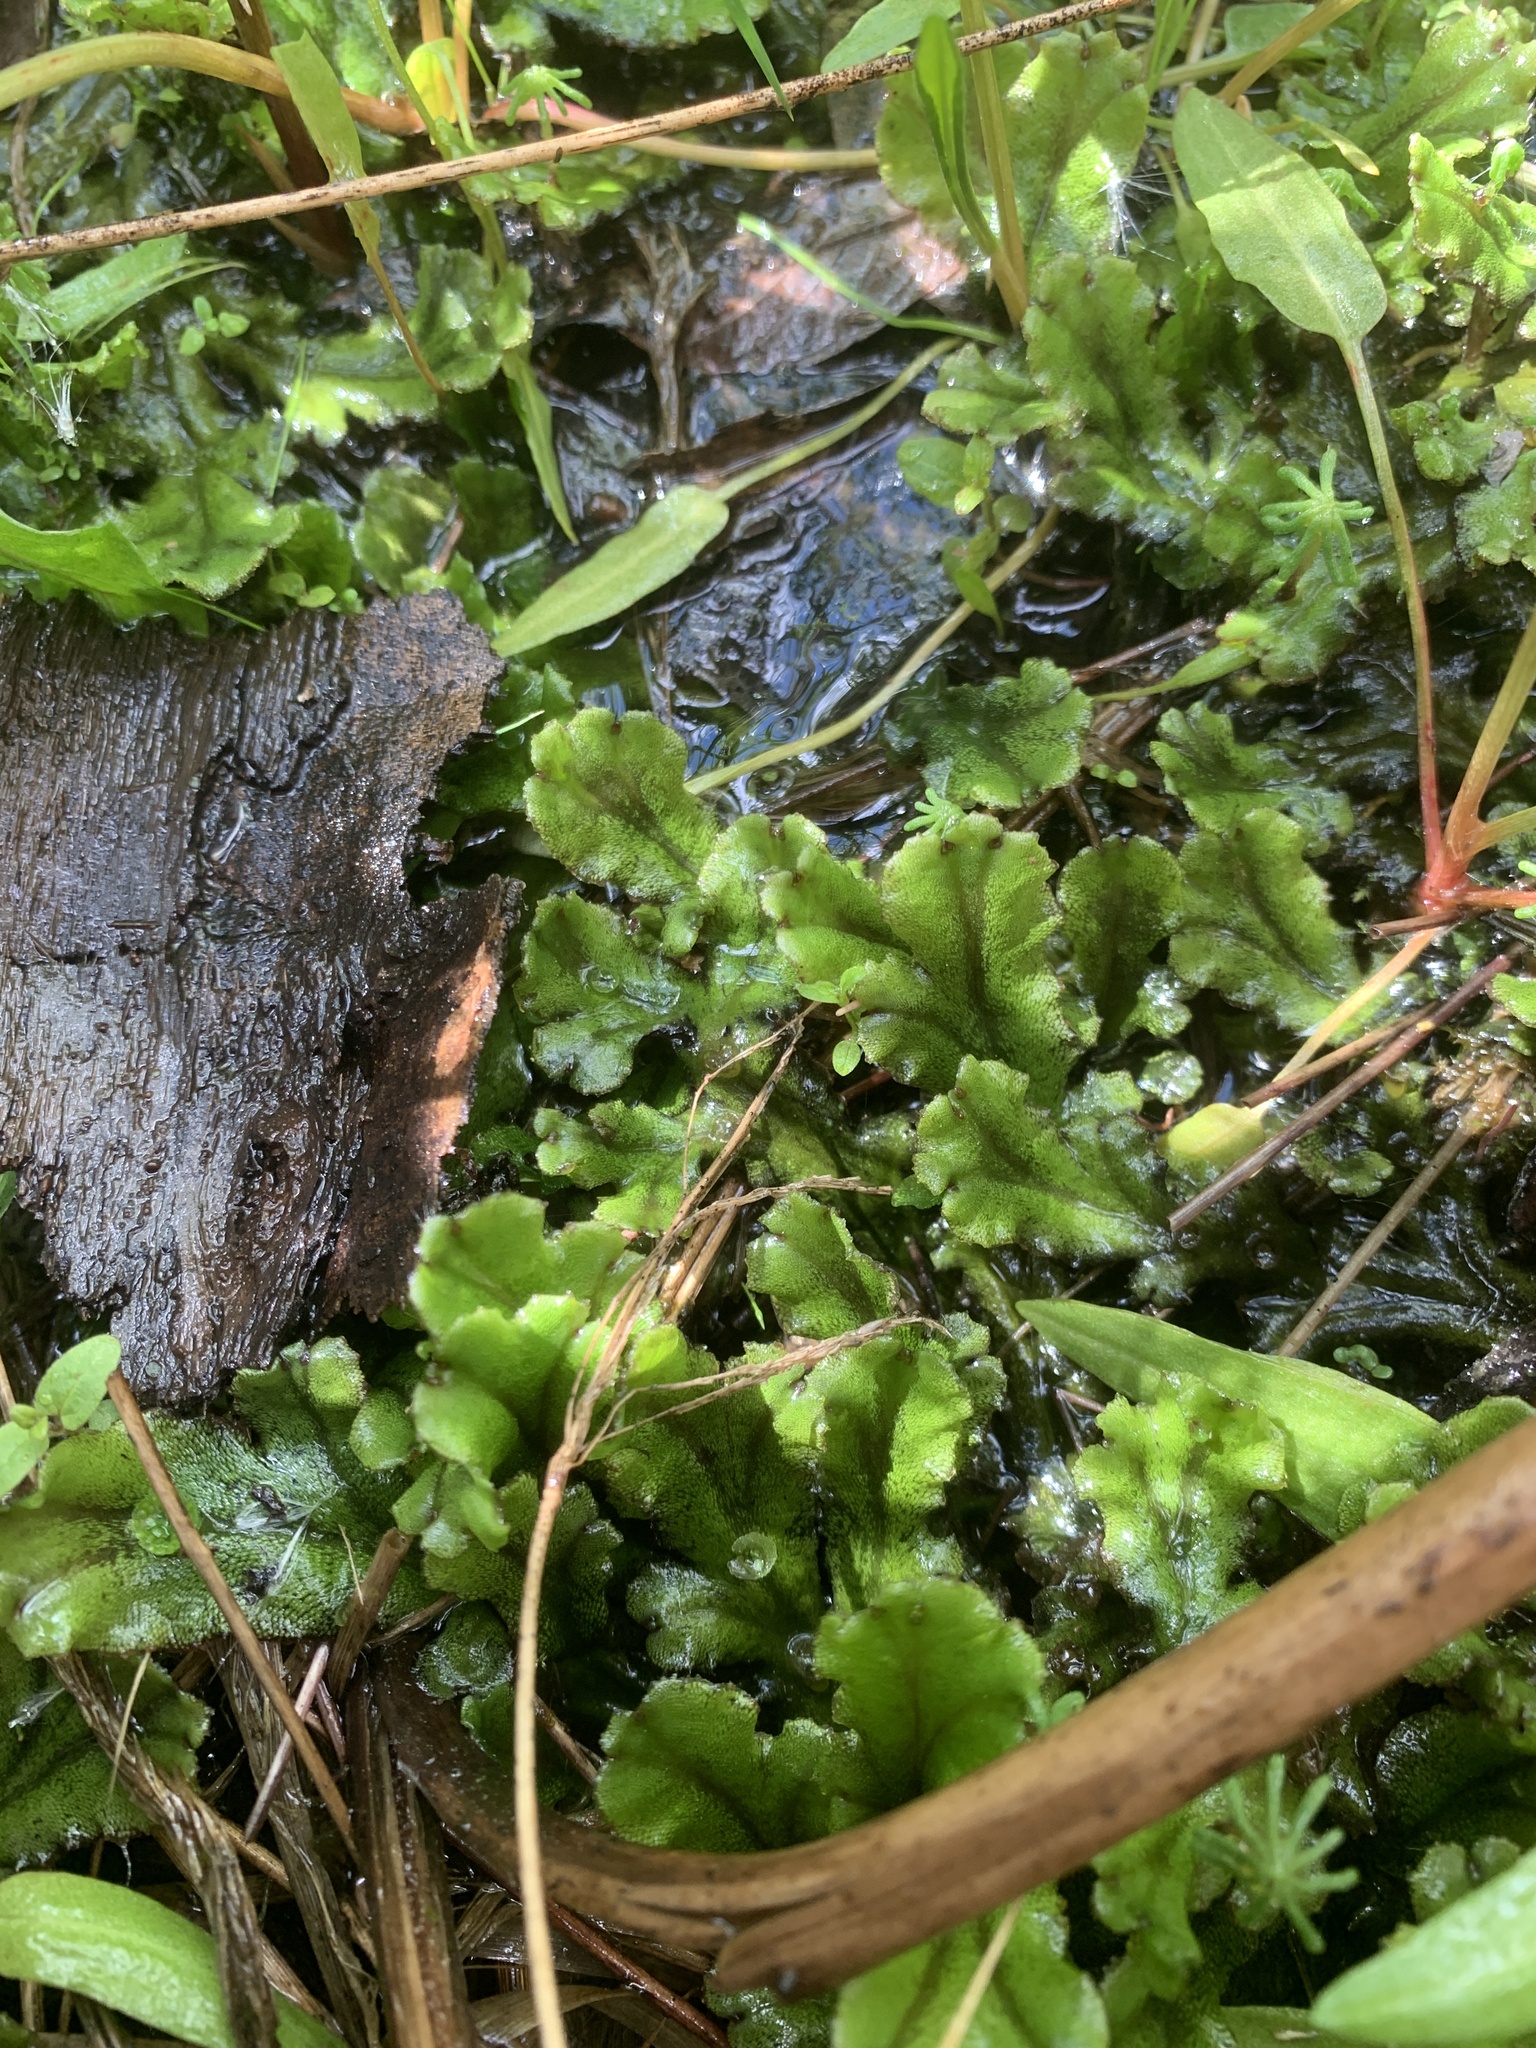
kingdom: Plantae
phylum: Marchantiophyta
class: Marchantiopsida
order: Marchantiales
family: Marchantiaceae
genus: Marchantia
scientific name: Marchantia polymorpha
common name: Common liverwort
